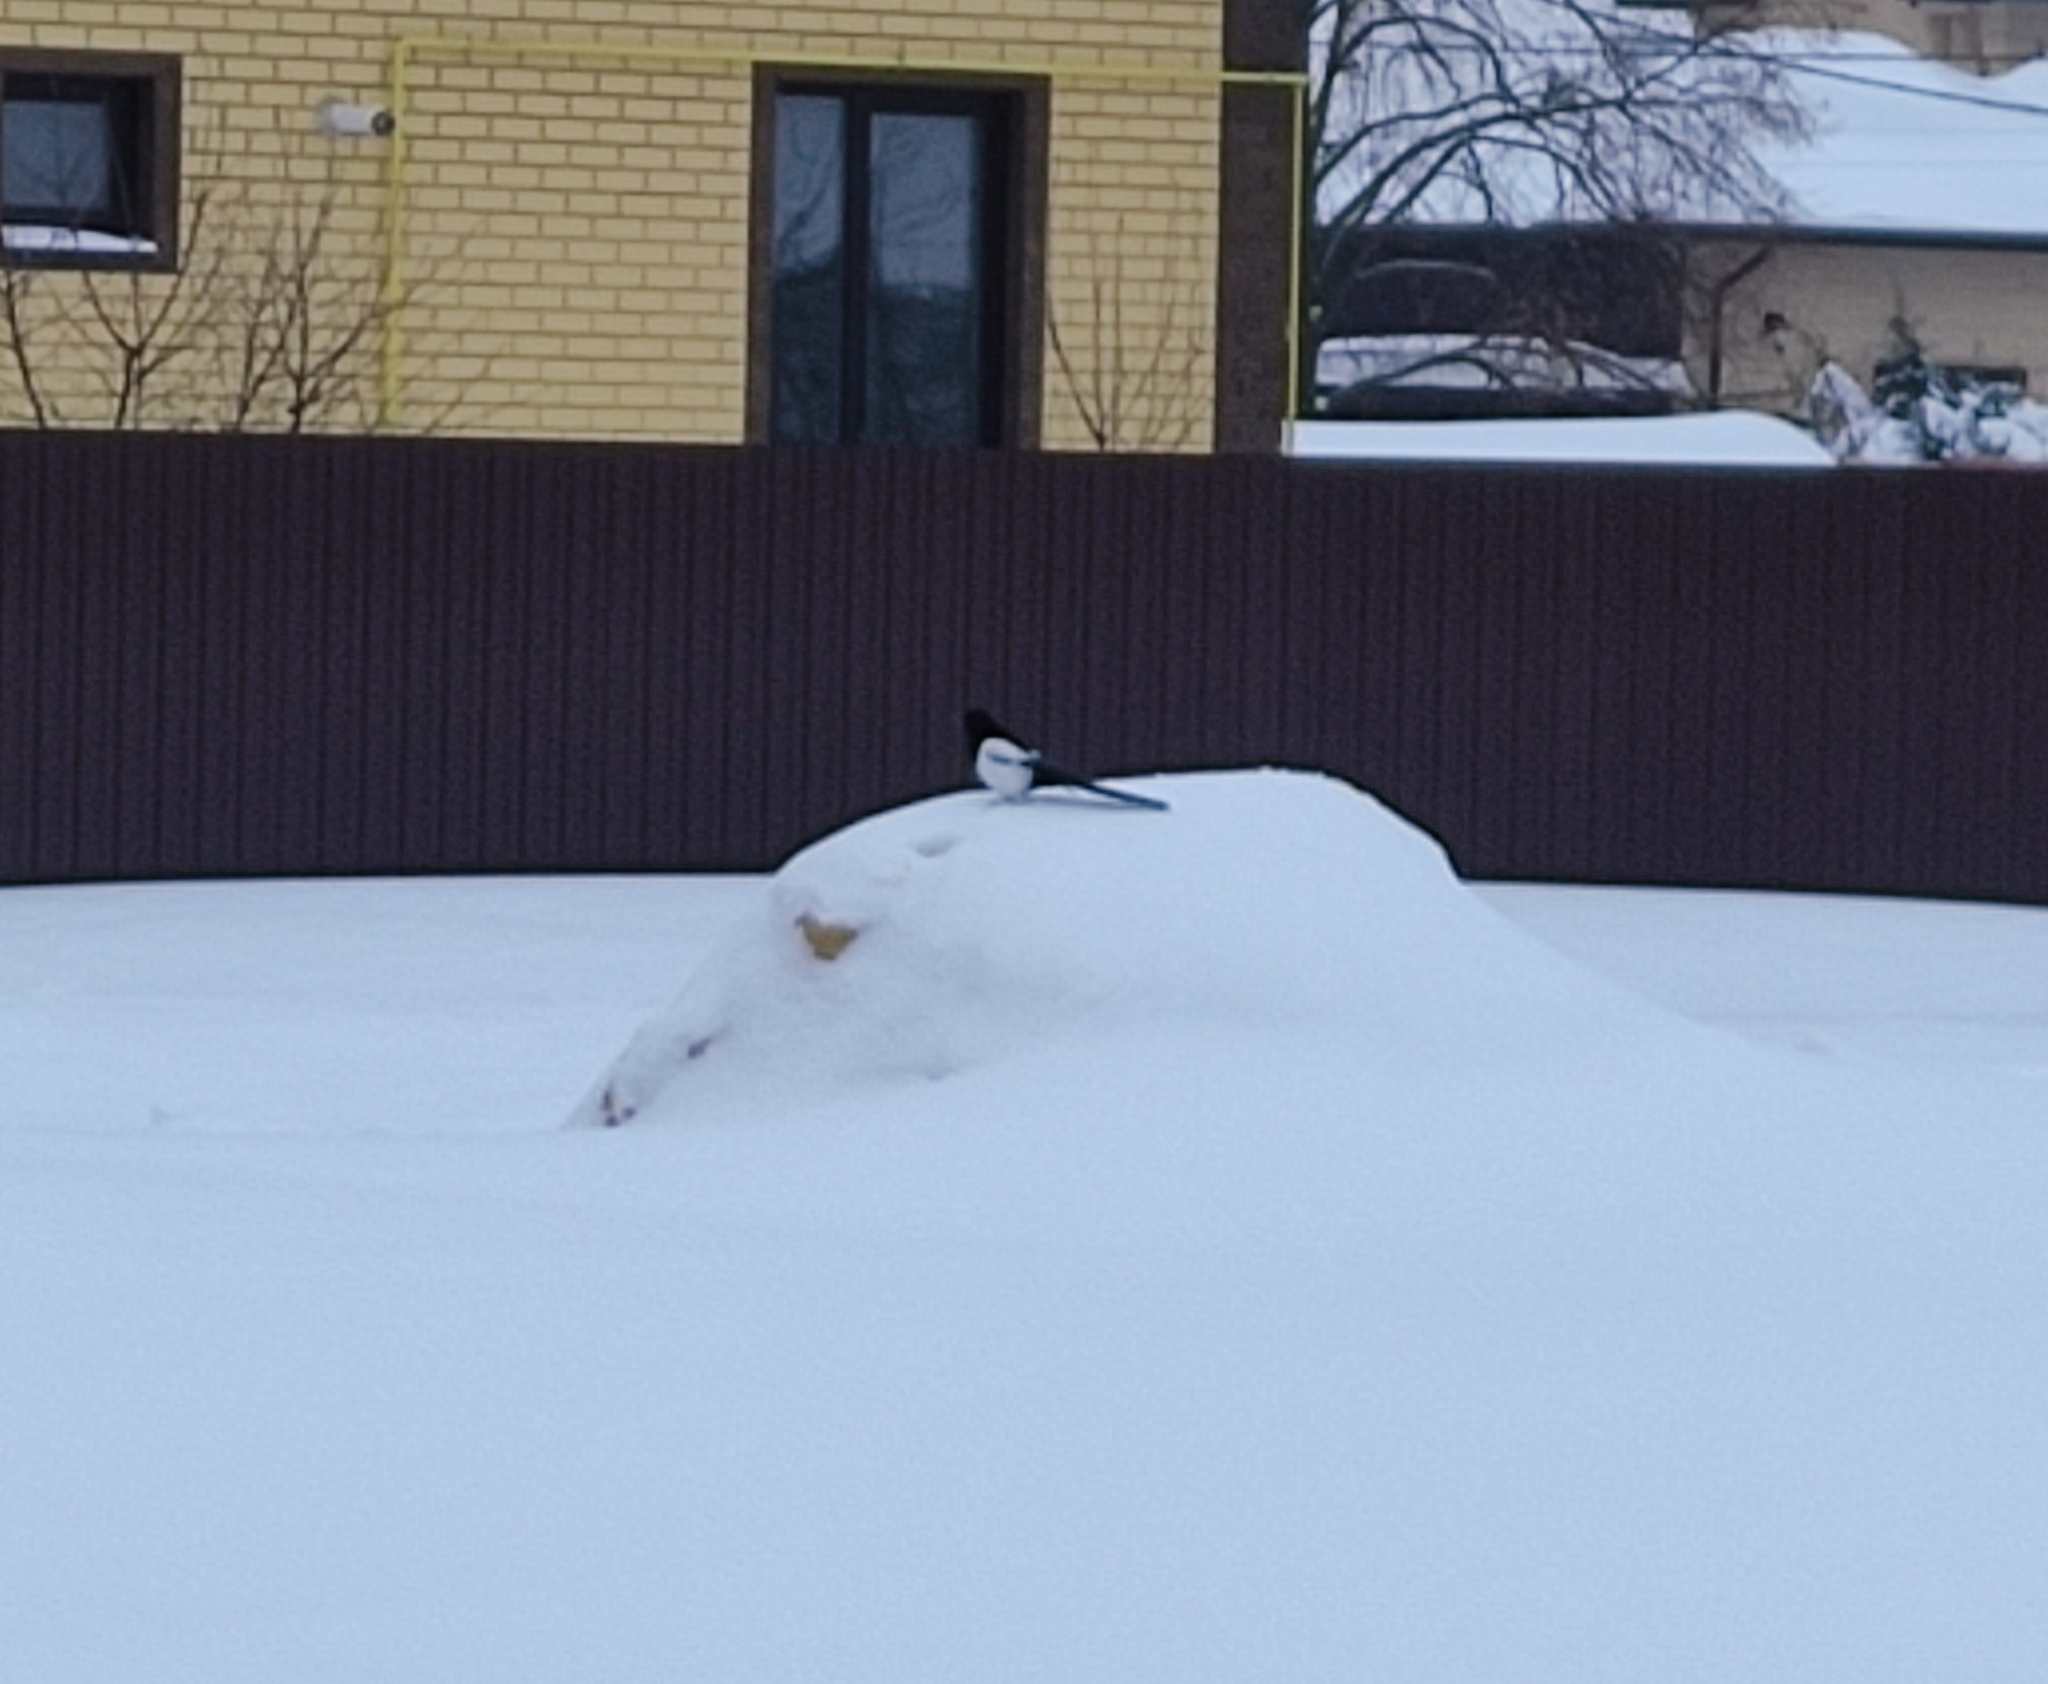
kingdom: Animalia
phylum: Chordata
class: Aves
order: Passeriformes
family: Corvidae
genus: Pica
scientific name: Pica pica
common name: Eurasian magpie
